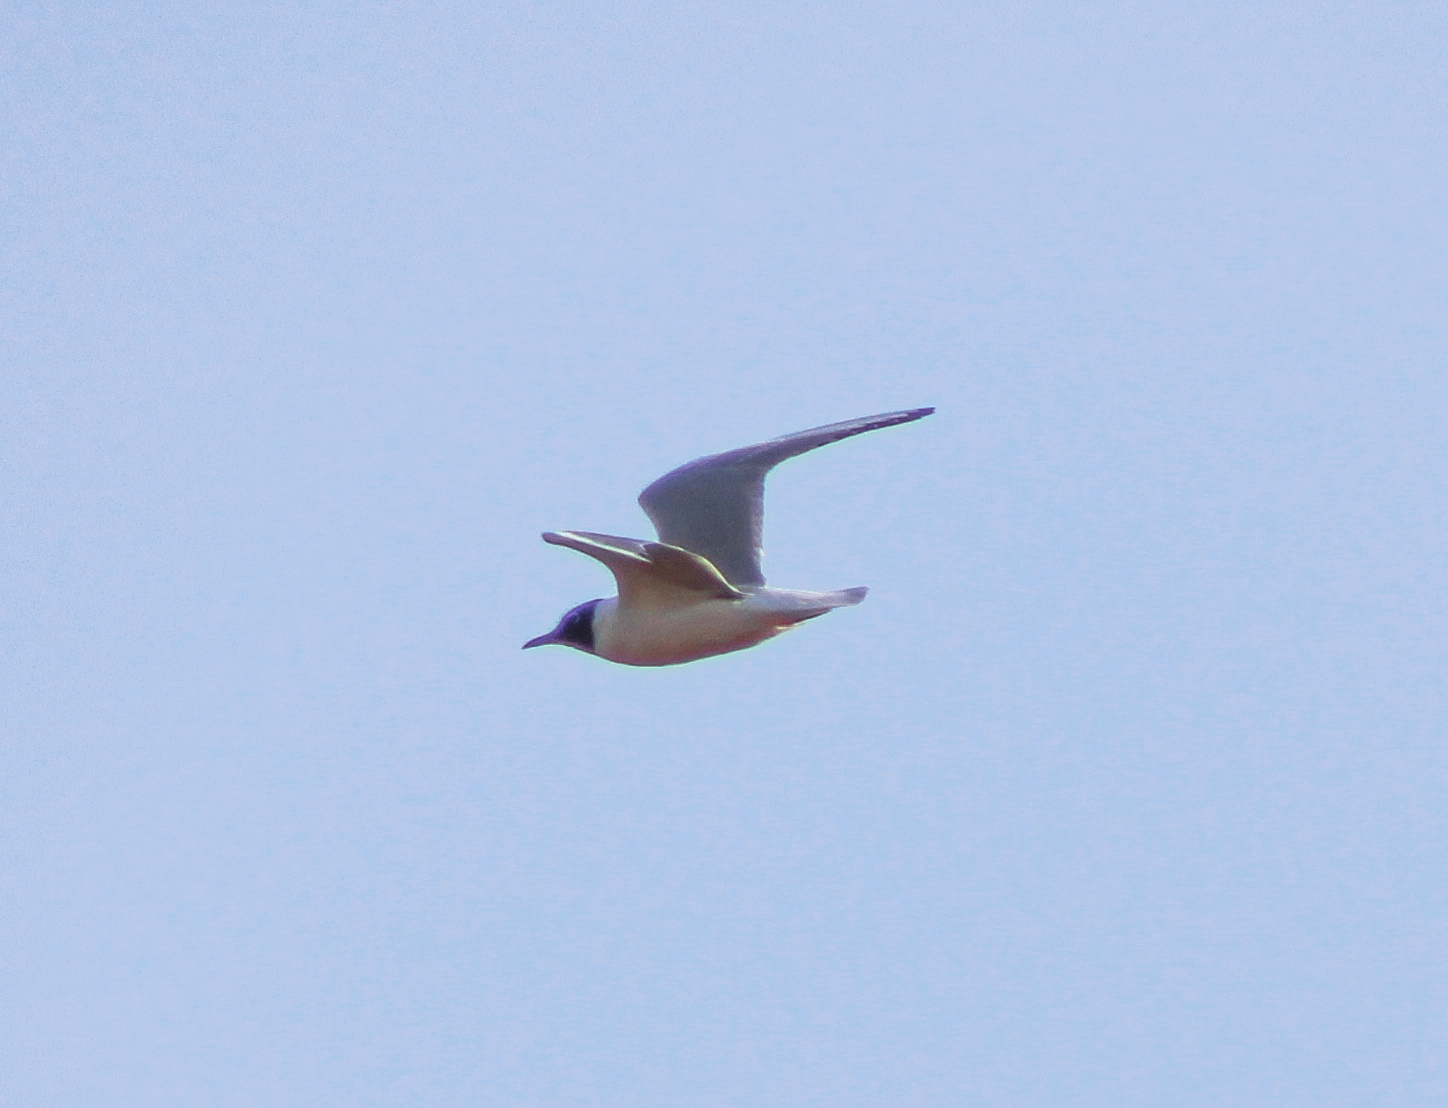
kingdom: Animalia
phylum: Chordata
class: Aves
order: Charadriiformes
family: Laridae
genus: Chroicocephalus
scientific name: Chroicocephalus philadelphia
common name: Bonaparte's gull
